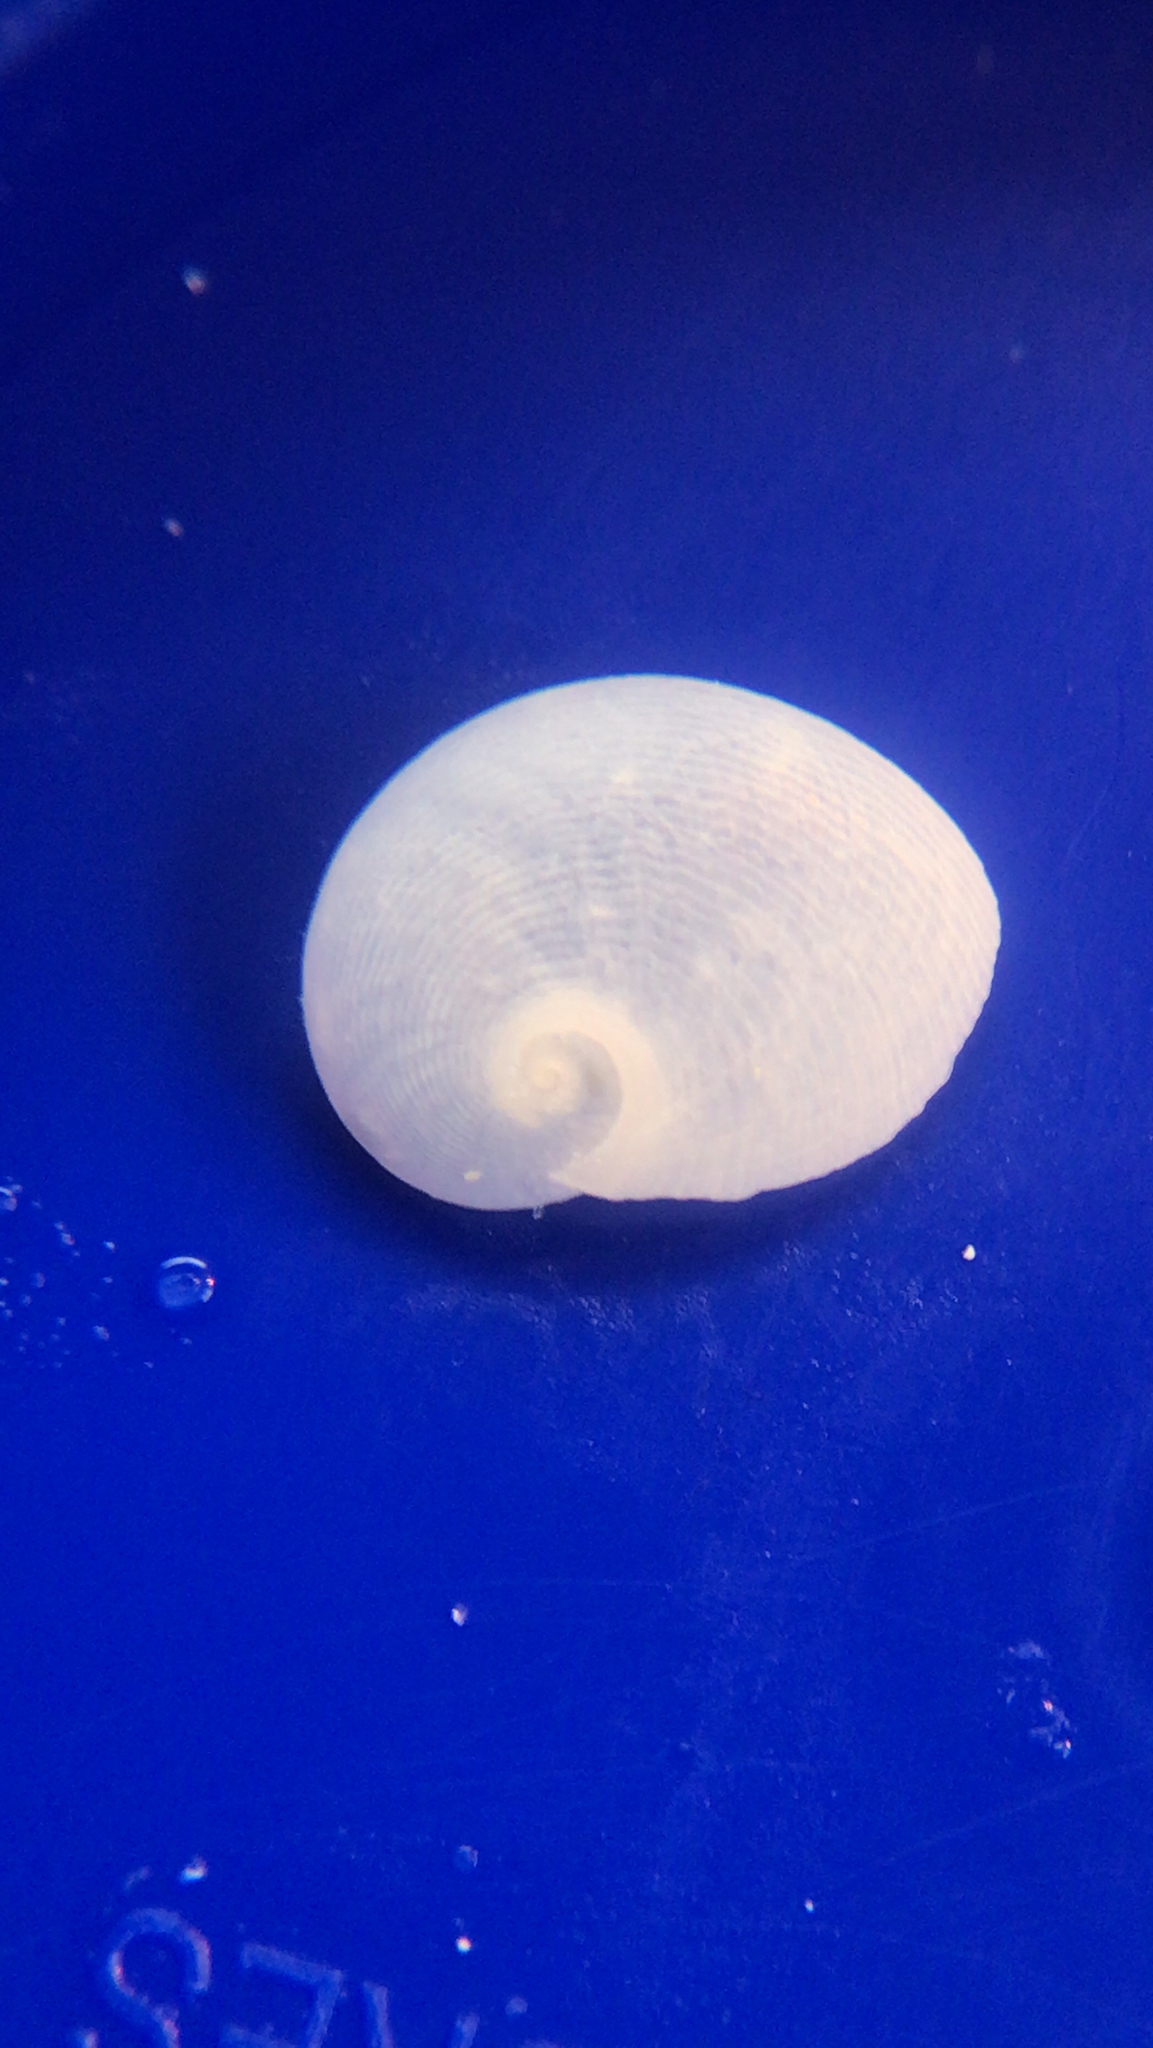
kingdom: Animalia
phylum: Mollusca
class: Gastropoda
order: Littorinimorpha
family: Naticidae
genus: Sinum
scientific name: Sinum perspectivum
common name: White baby ear
